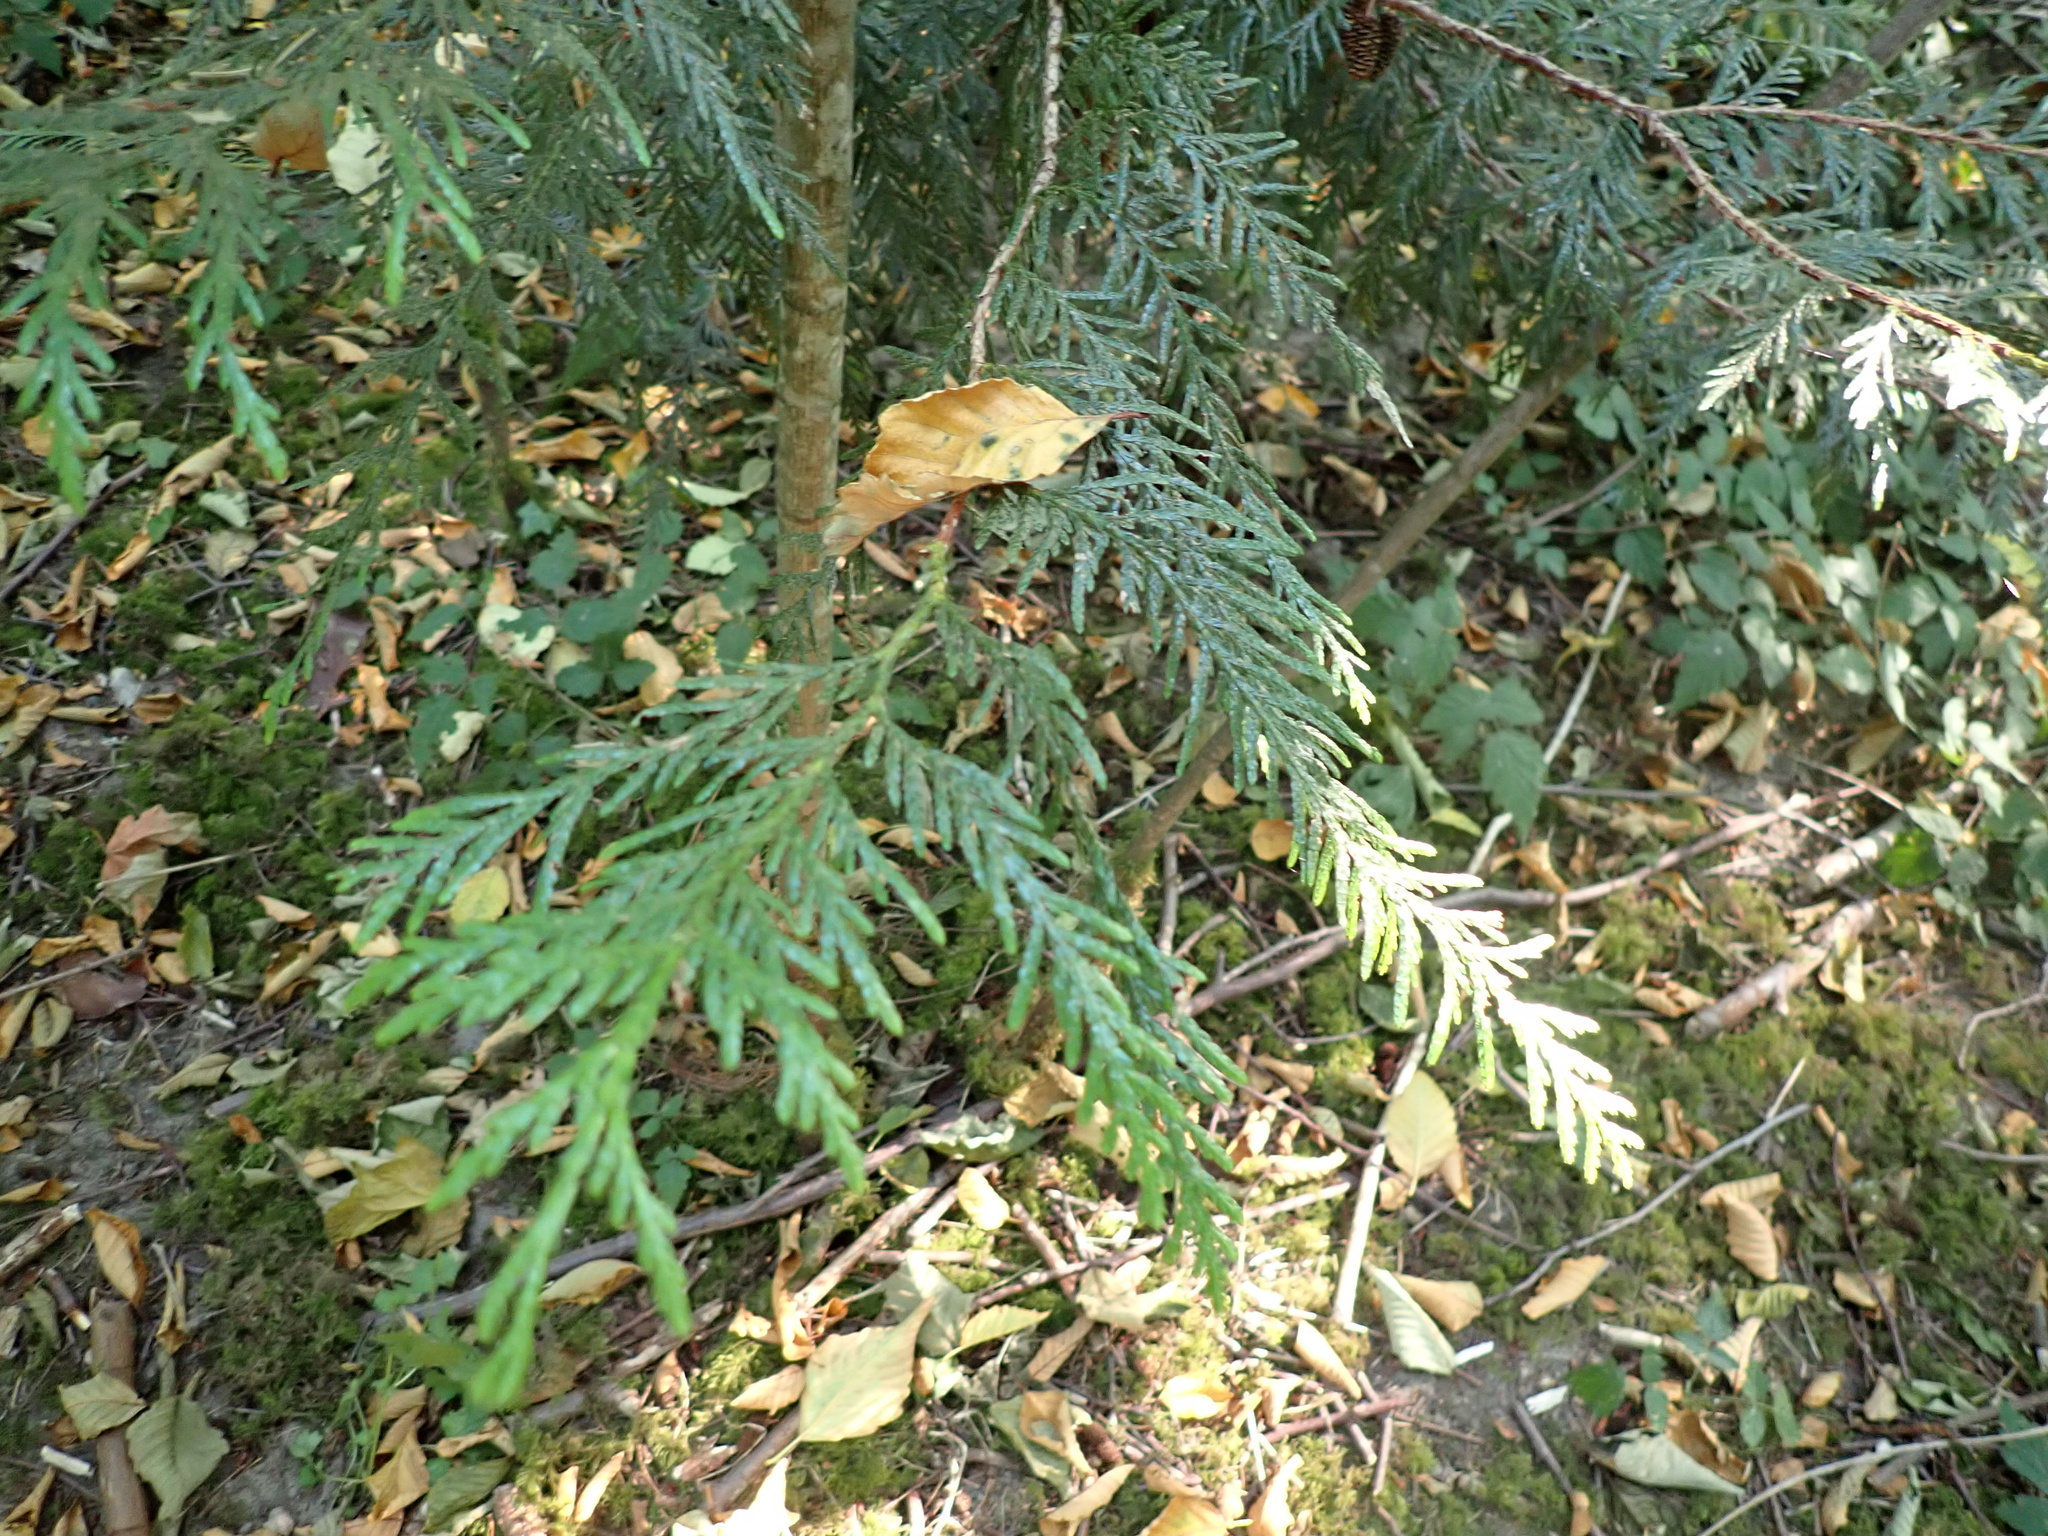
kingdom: Plantae
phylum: Tracheophyta
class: Pinopsida
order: Pinales
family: Cupressaceae
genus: Thuja
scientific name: Thuja plicata
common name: Western red-cedar
